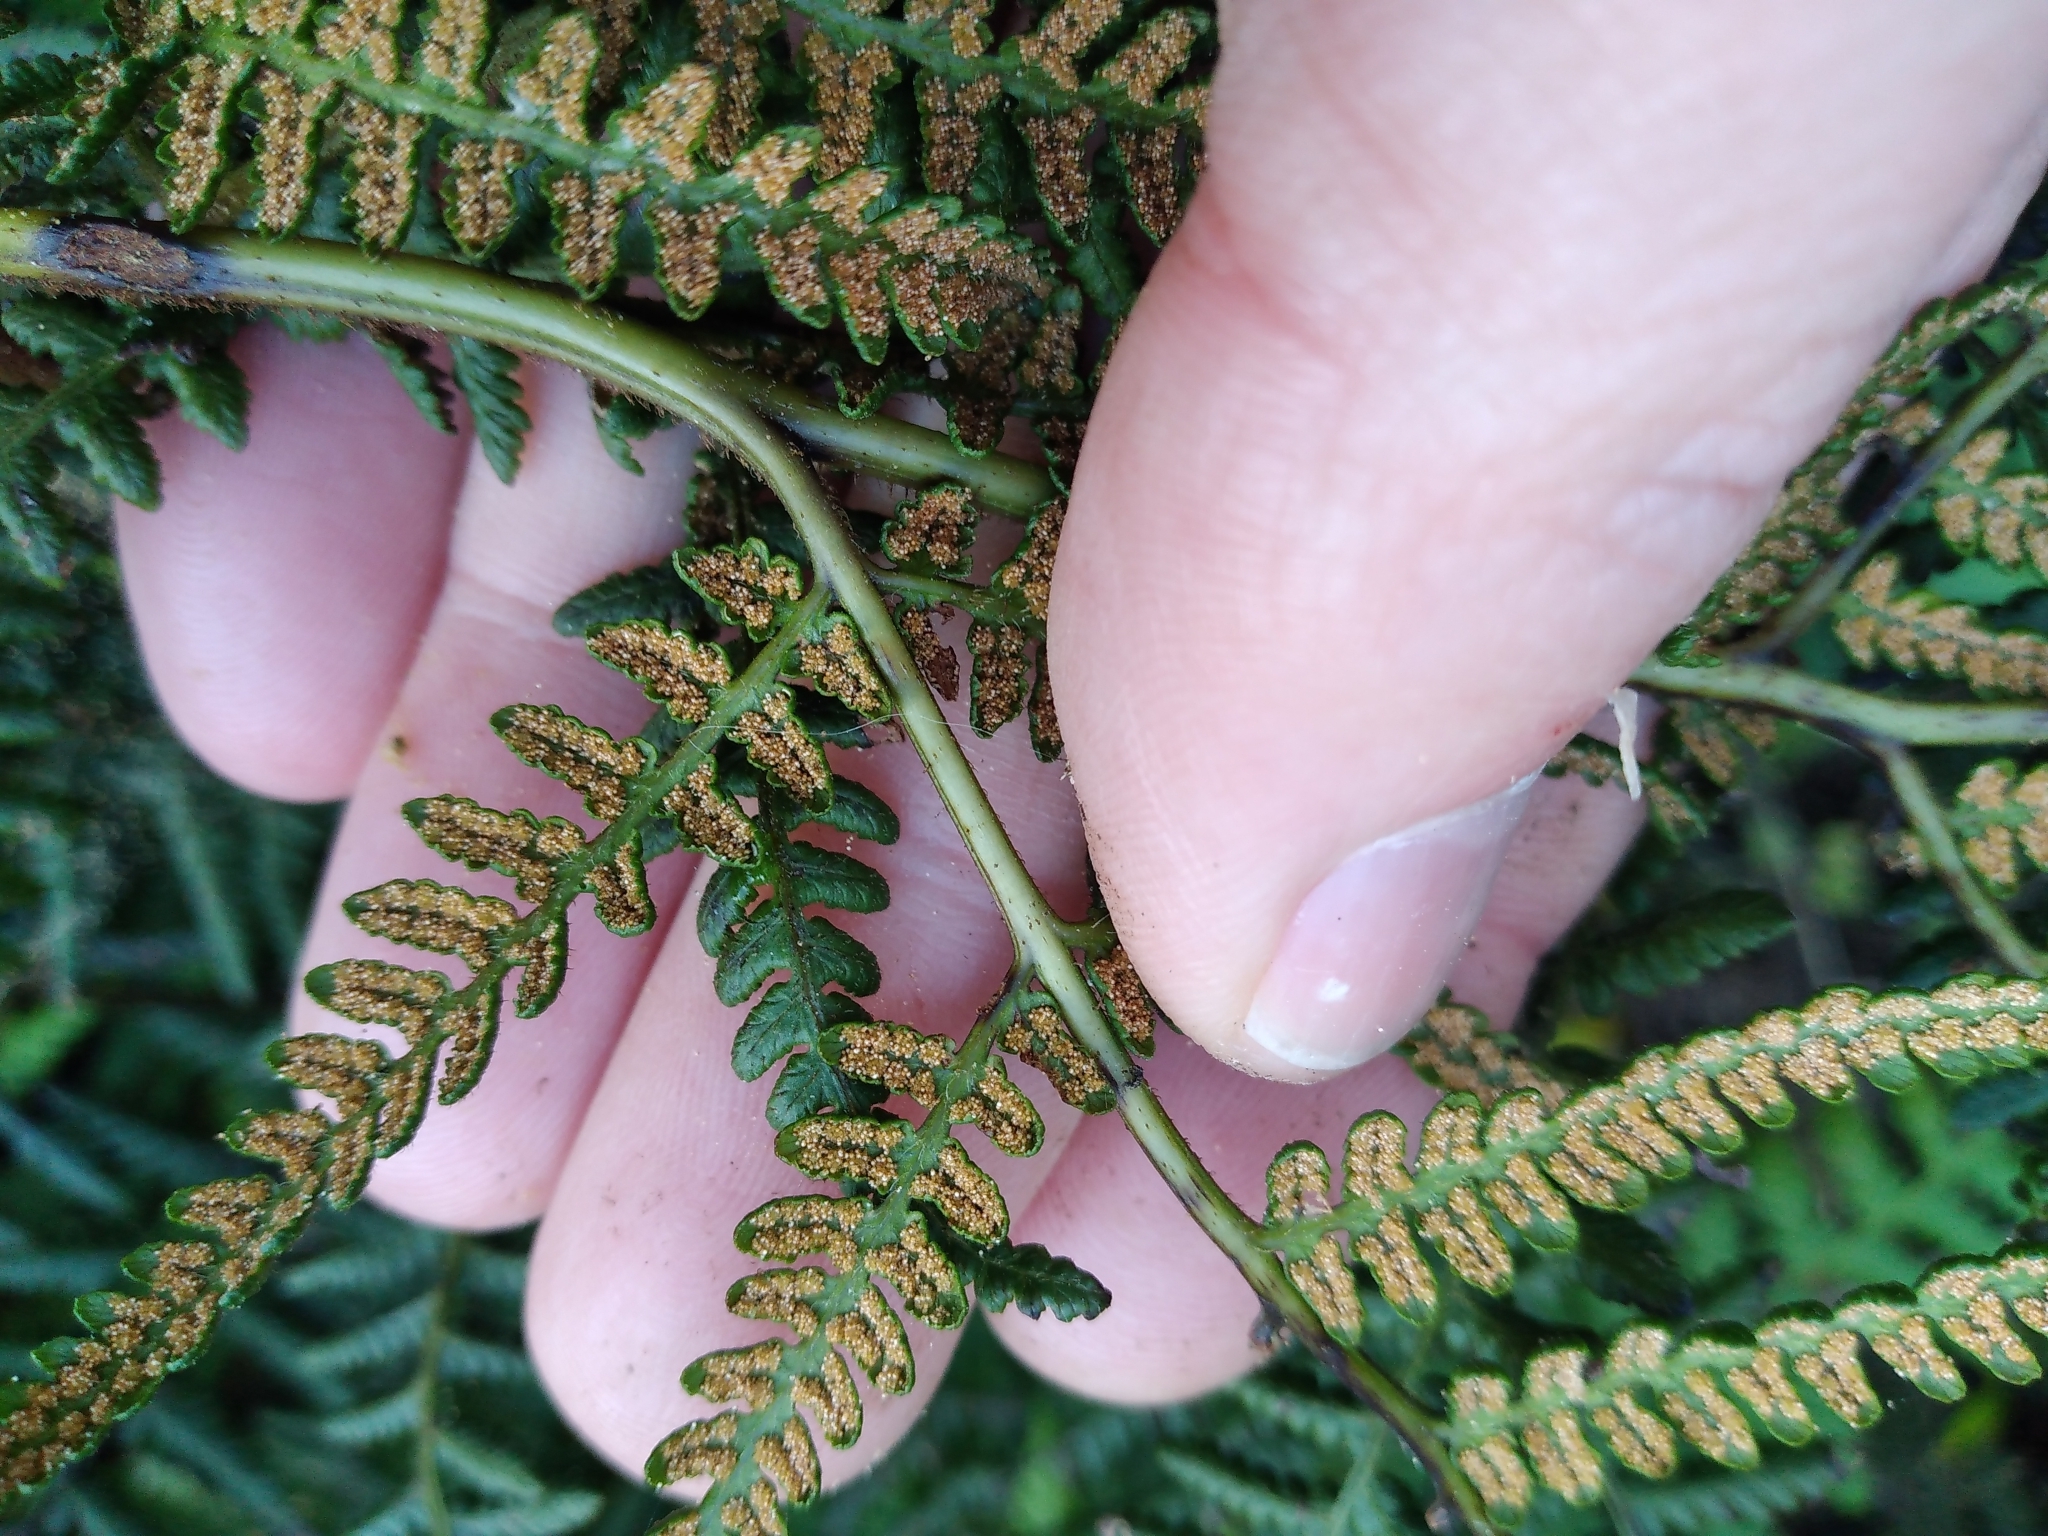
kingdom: Plantae
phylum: Tracheophyta
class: Polypodiopsida
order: Polypodiales
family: Dennstaedtiaceae
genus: Hypolepis
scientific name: Hypolepis ambigua
